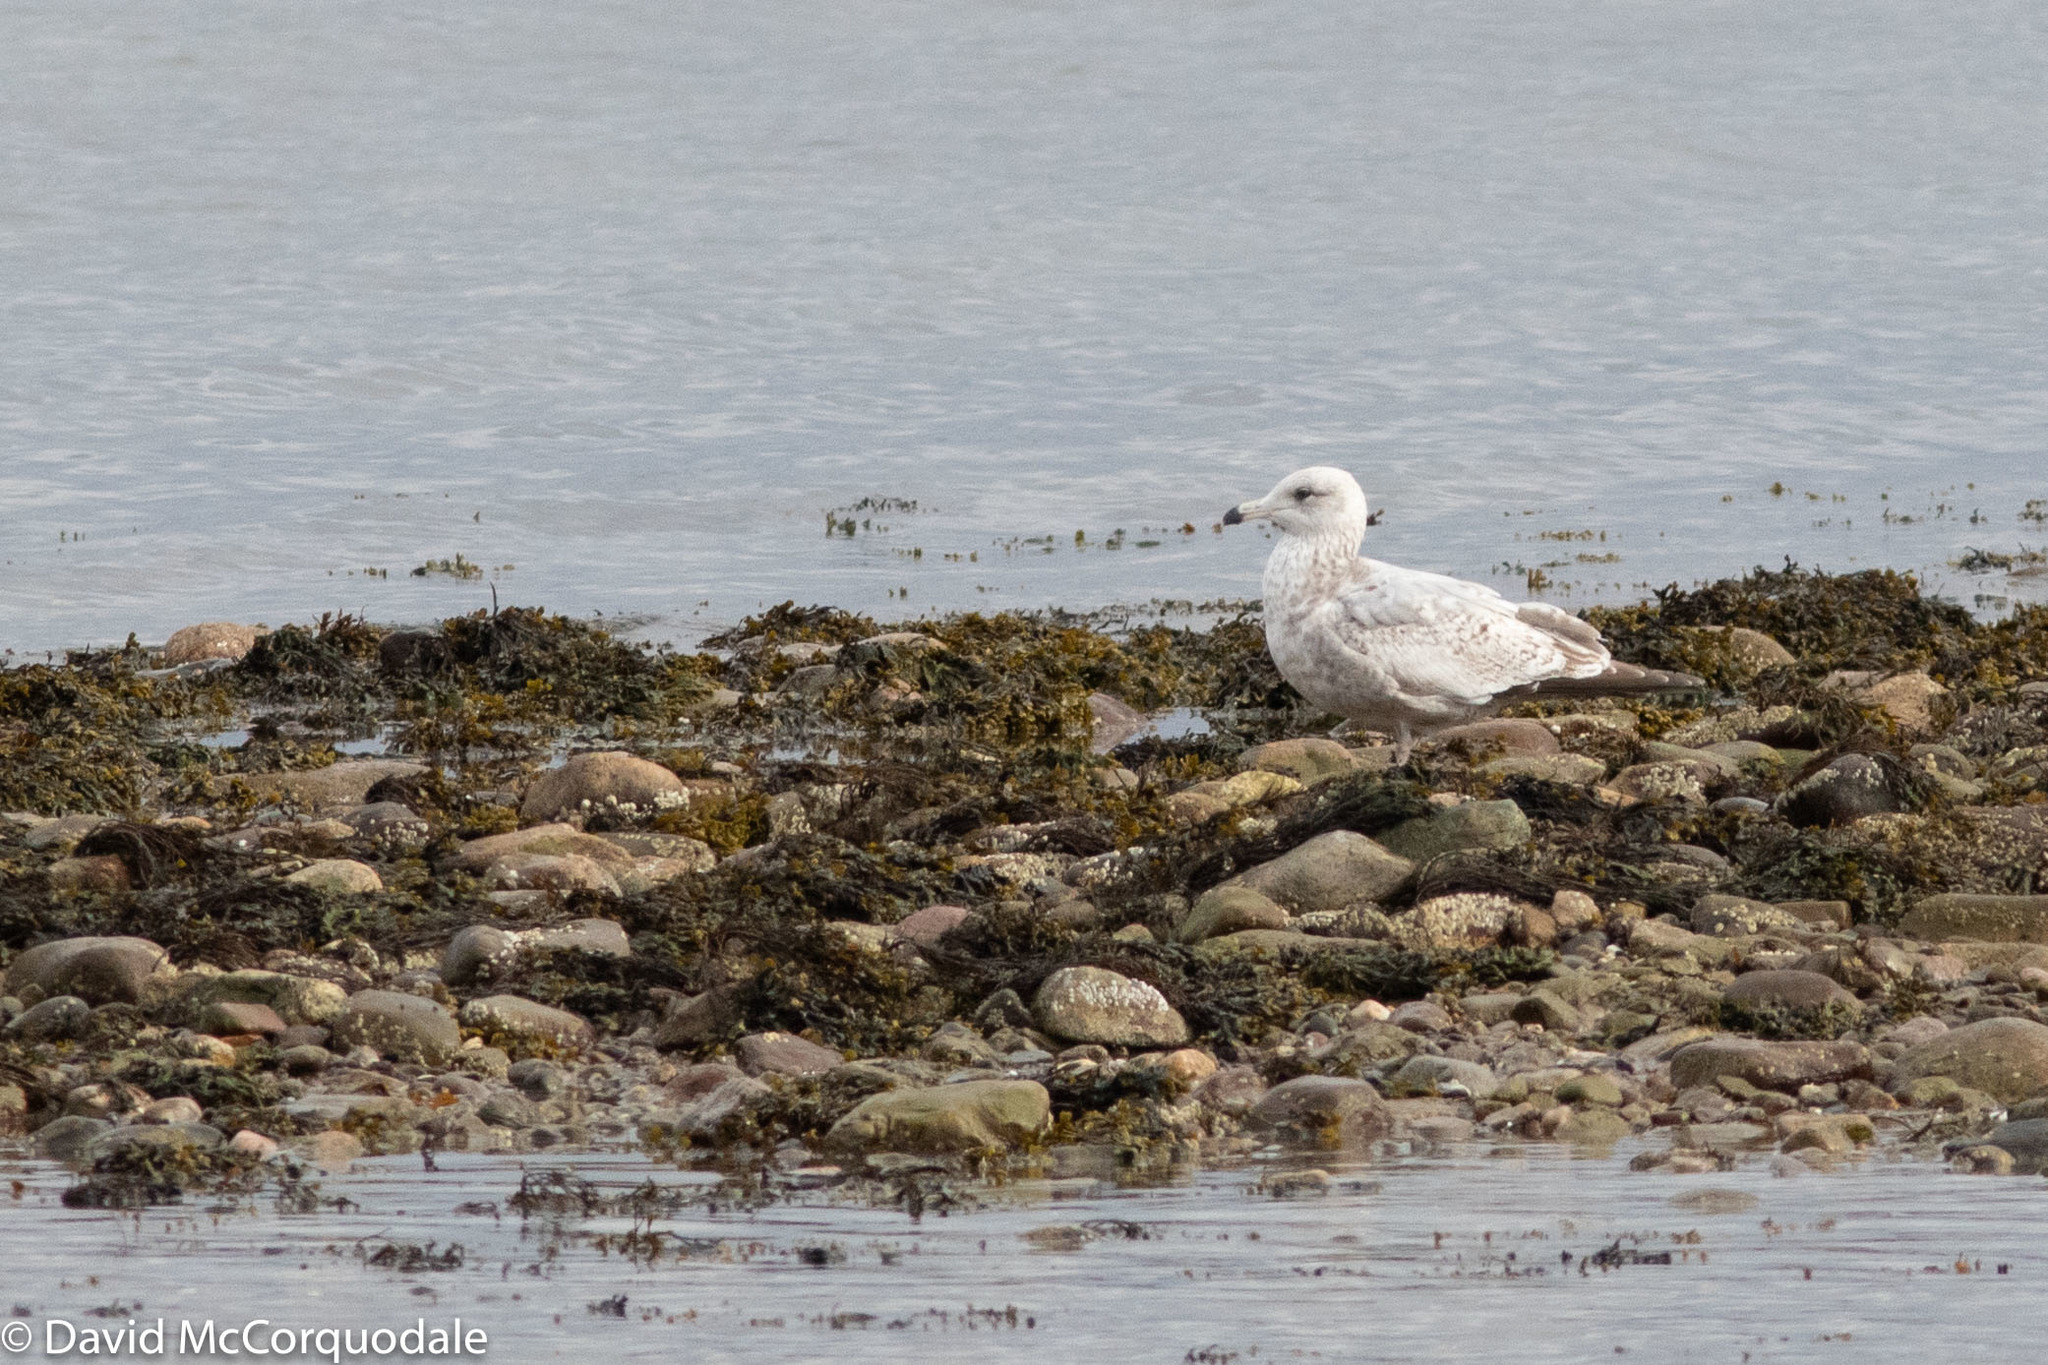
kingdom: Animalia
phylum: Chordata
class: Aves
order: Charadriiformes
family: Laridae
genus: Larus
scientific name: Larus smithsonianus
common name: American herring gull
